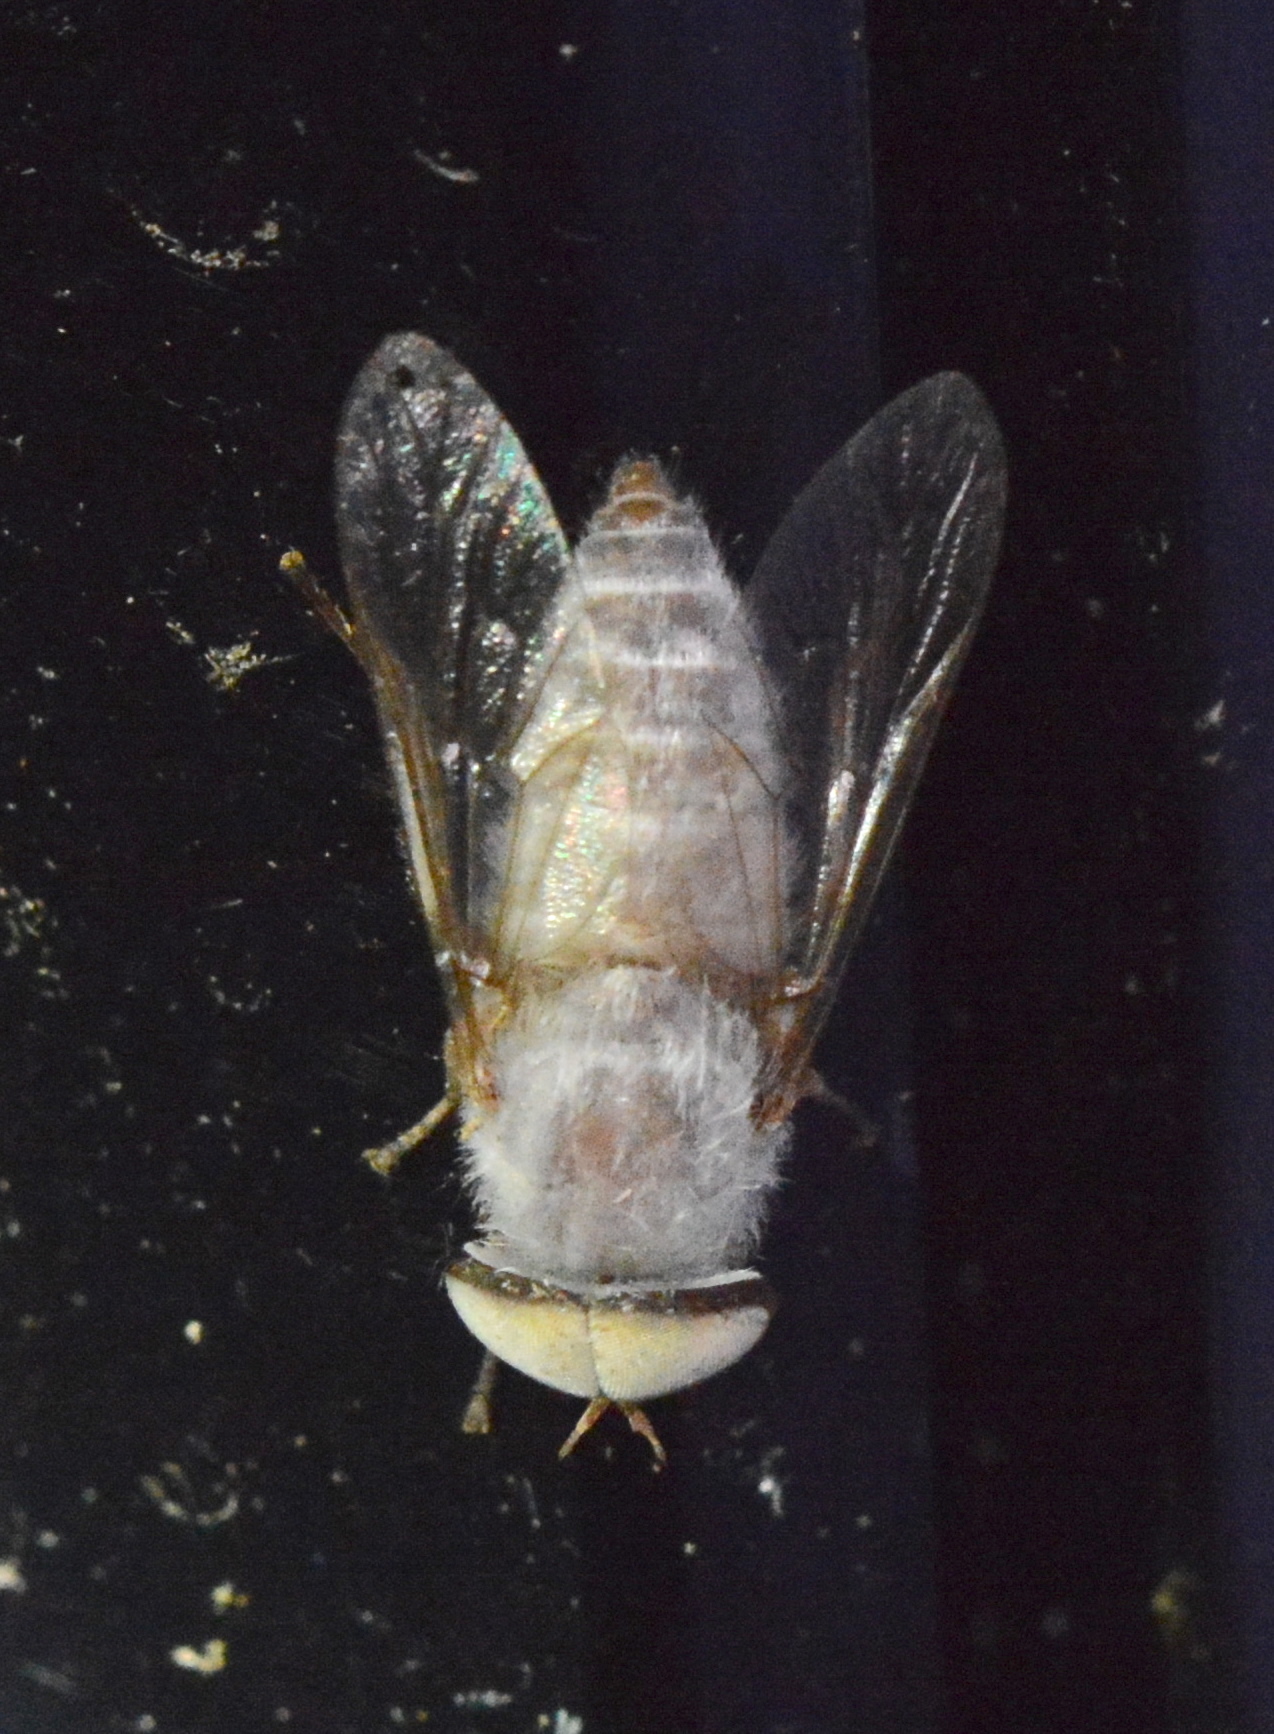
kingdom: Animalia
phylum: Arthropoda
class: Insecta
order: Diptera
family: Tabanidae
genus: Leucotabanus
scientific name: Leucotabanus annulatus
